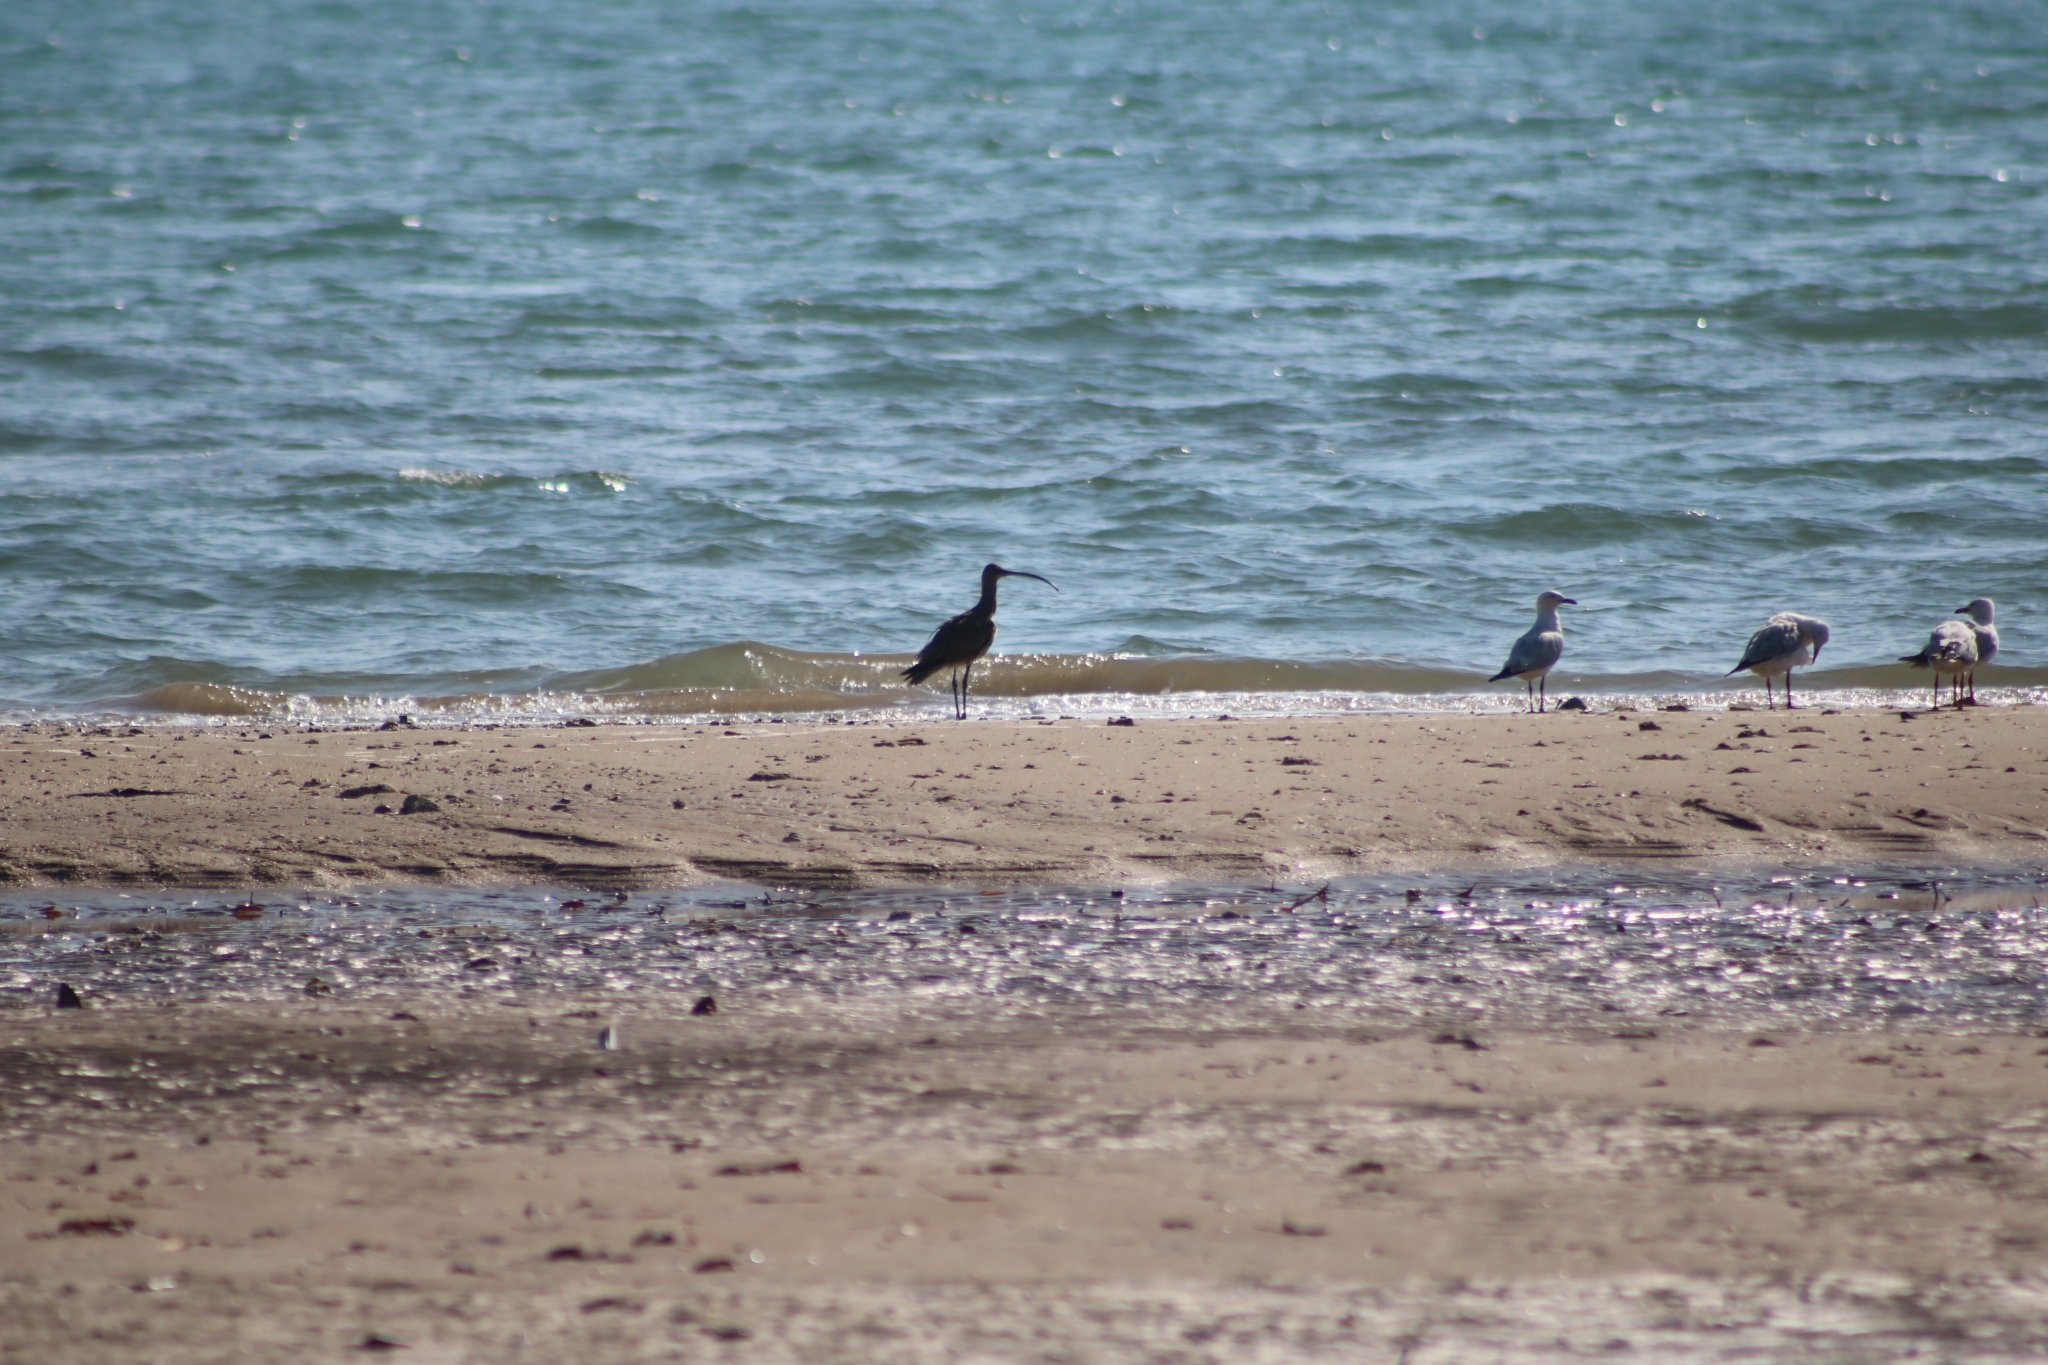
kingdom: Animalia
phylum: Chordata
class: Aves
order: Charadriiformes
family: Scolopacidae
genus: Numenius
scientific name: Numenius madagascariensis
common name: Far eastern curlew
